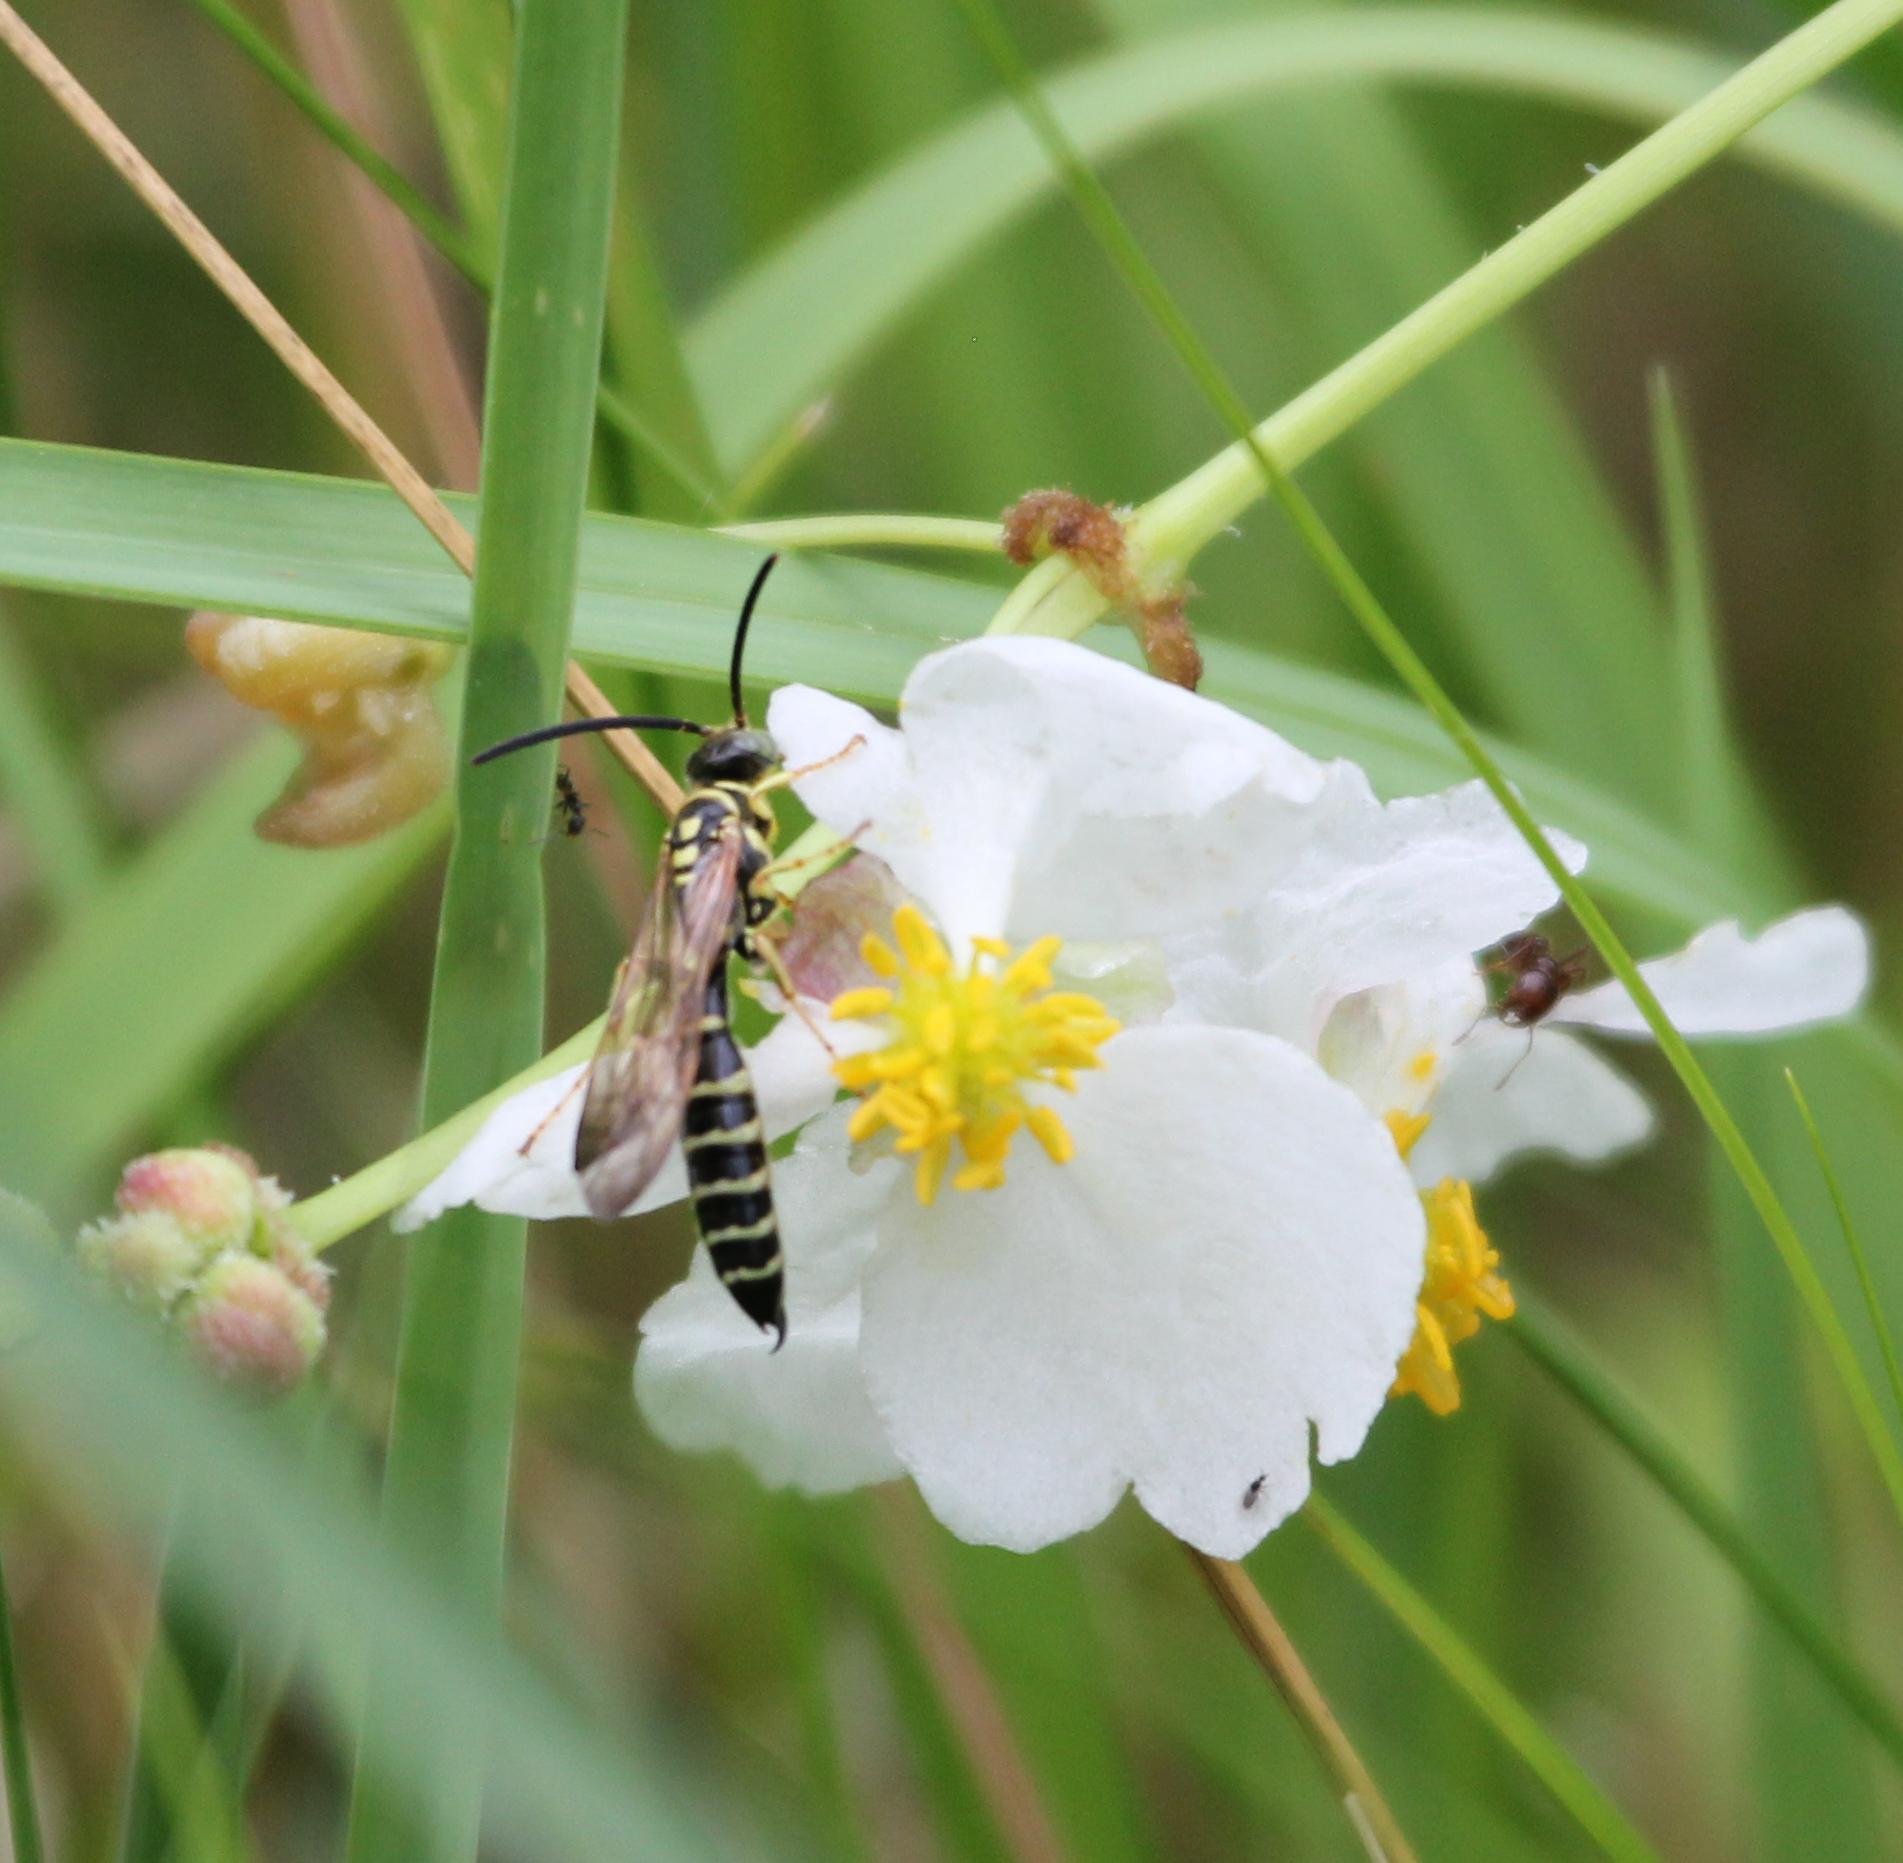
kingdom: Animalia
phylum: Arthropoda
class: Insecta
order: Hymenoptera
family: Tiphiidae
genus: Myzinum
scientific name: Myzinum
